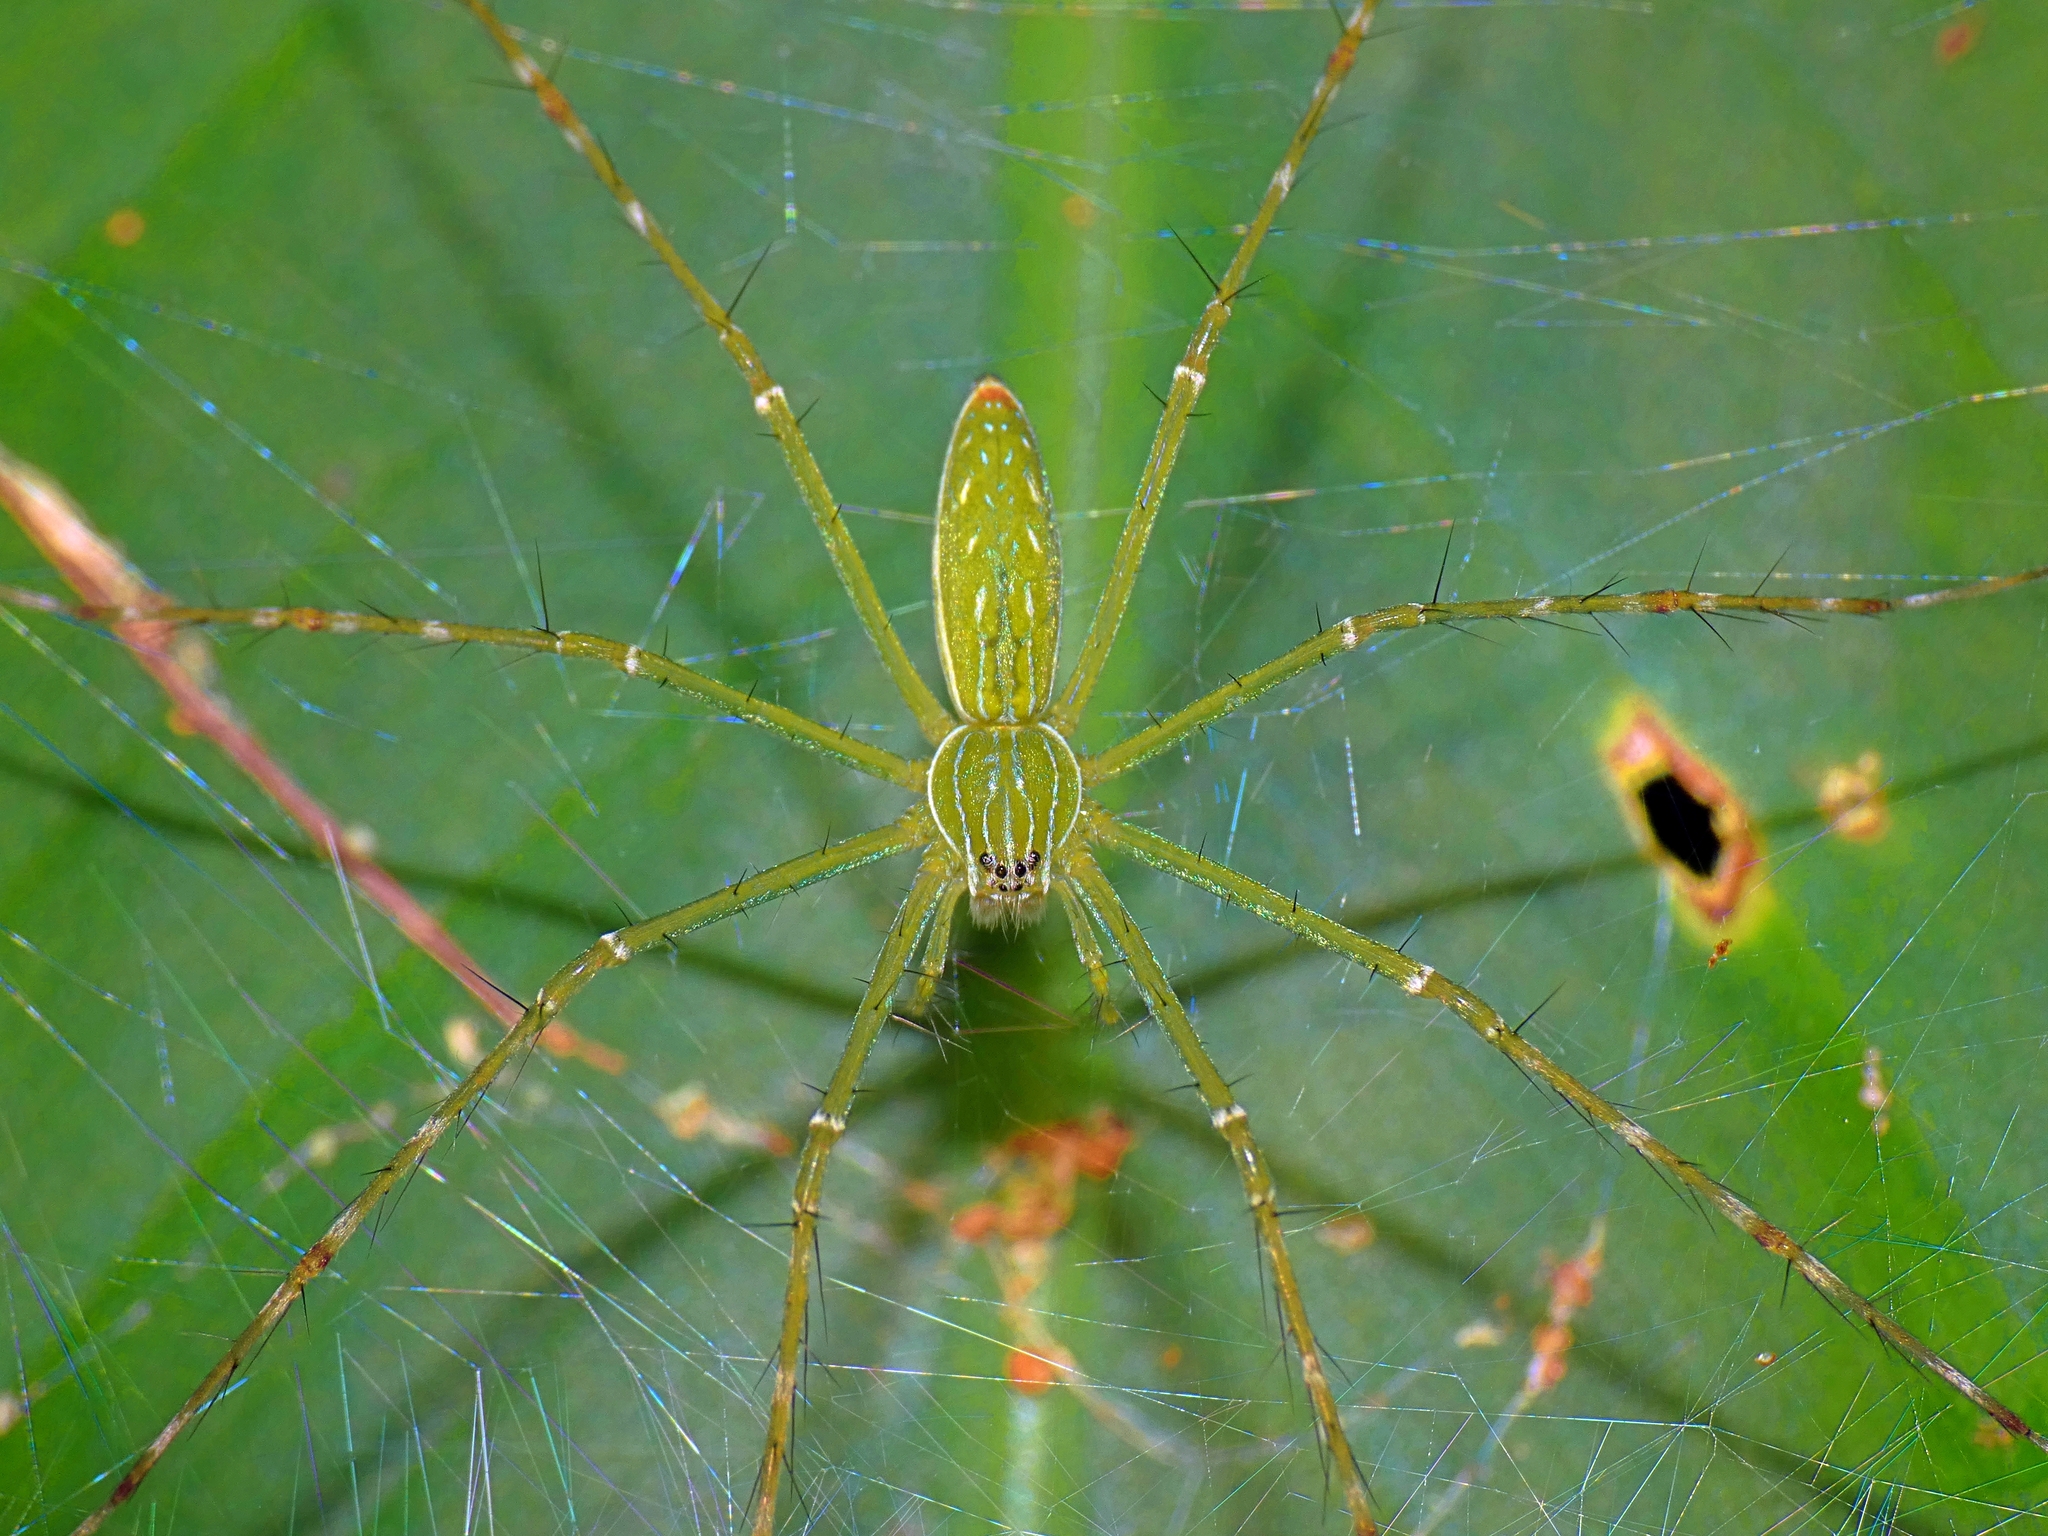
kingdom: Animalia
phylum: Arthropoda
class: Arachnida
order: Araneae
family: Pisauridae
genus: Hygropoda
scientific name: Hygropoda lineata
